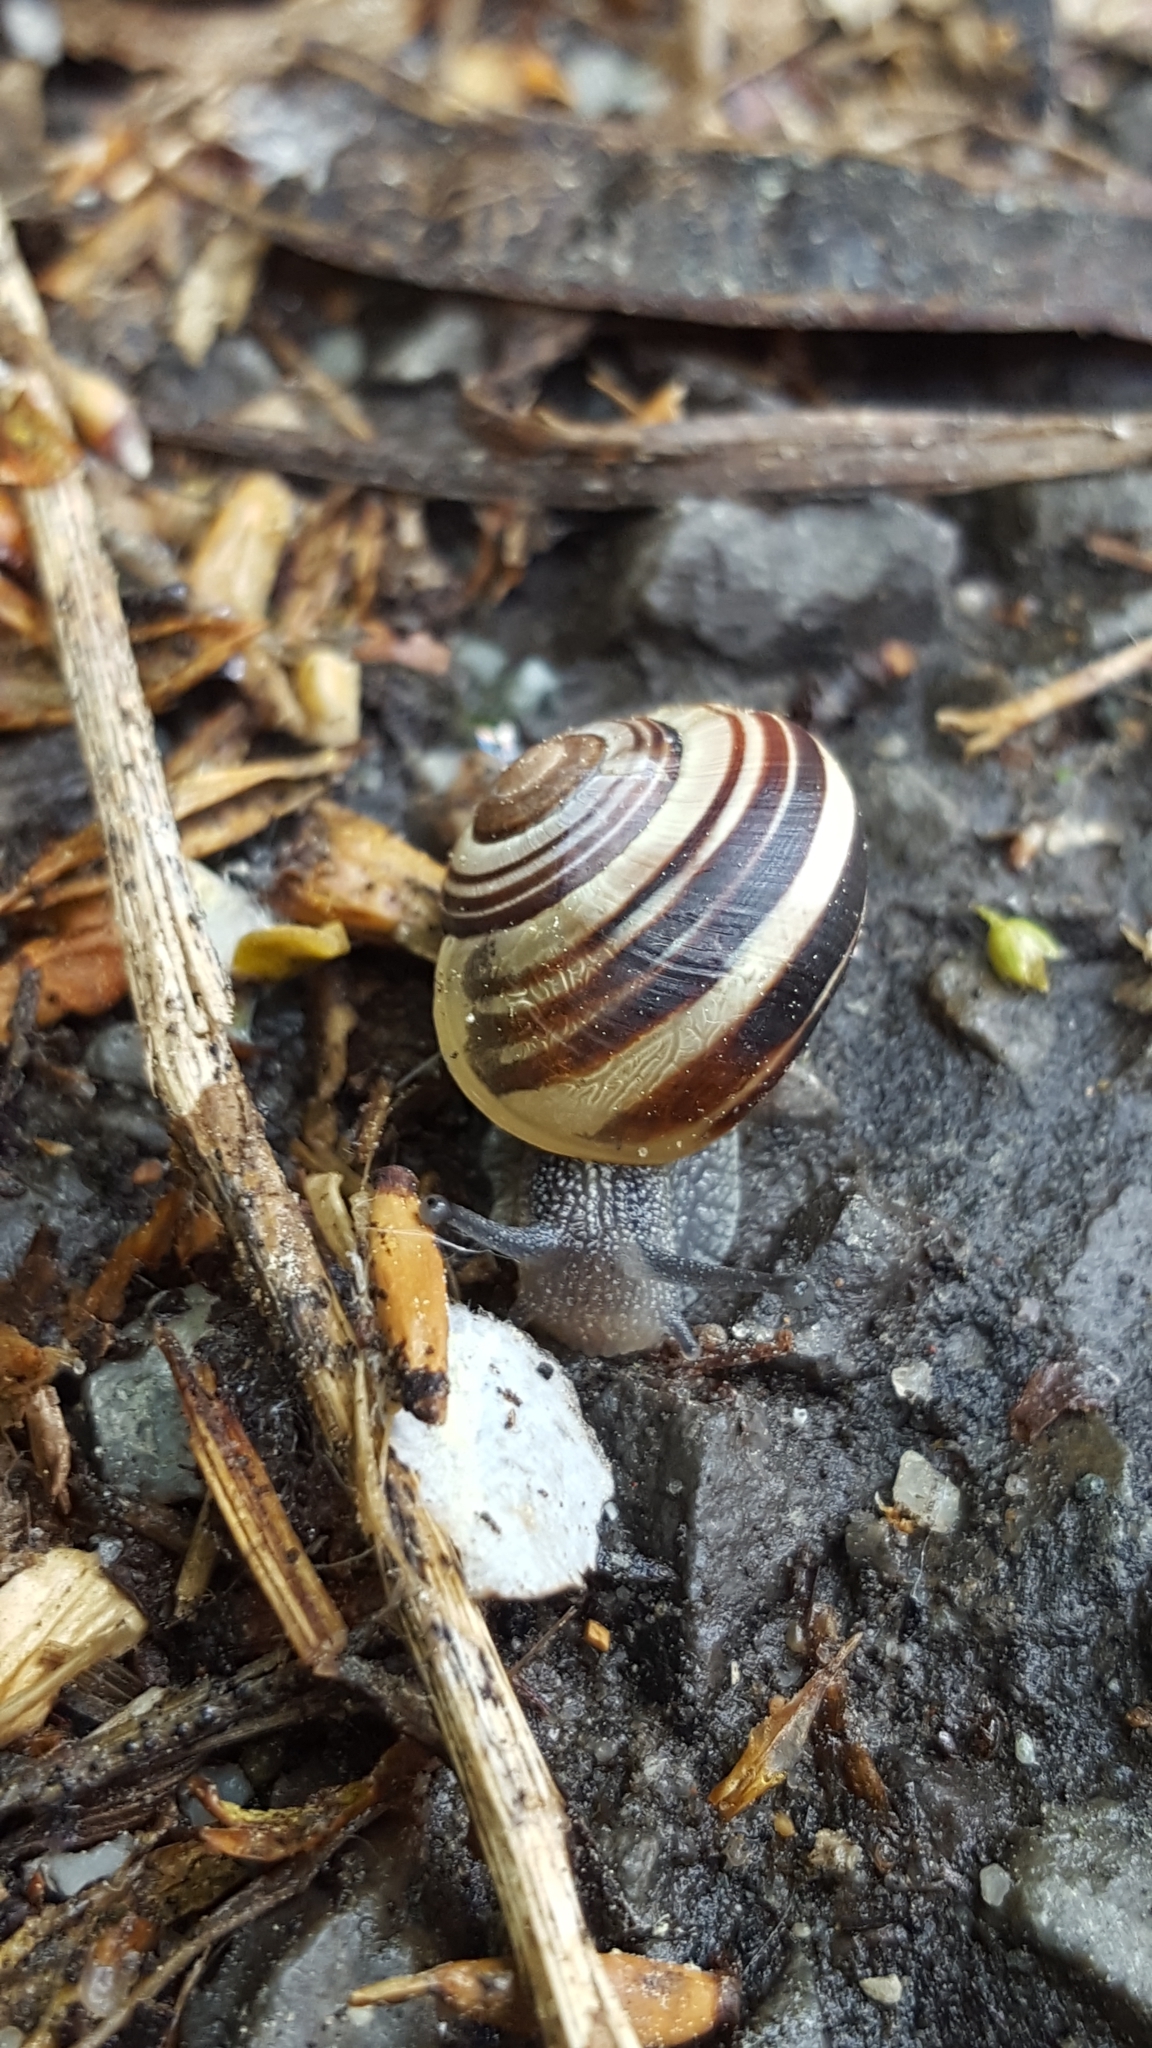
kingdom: Animalia
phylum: Mollusca
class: Gastropoda
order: Stylommatophora
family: Helicidae
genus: Cepaea
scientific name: Cepaea
